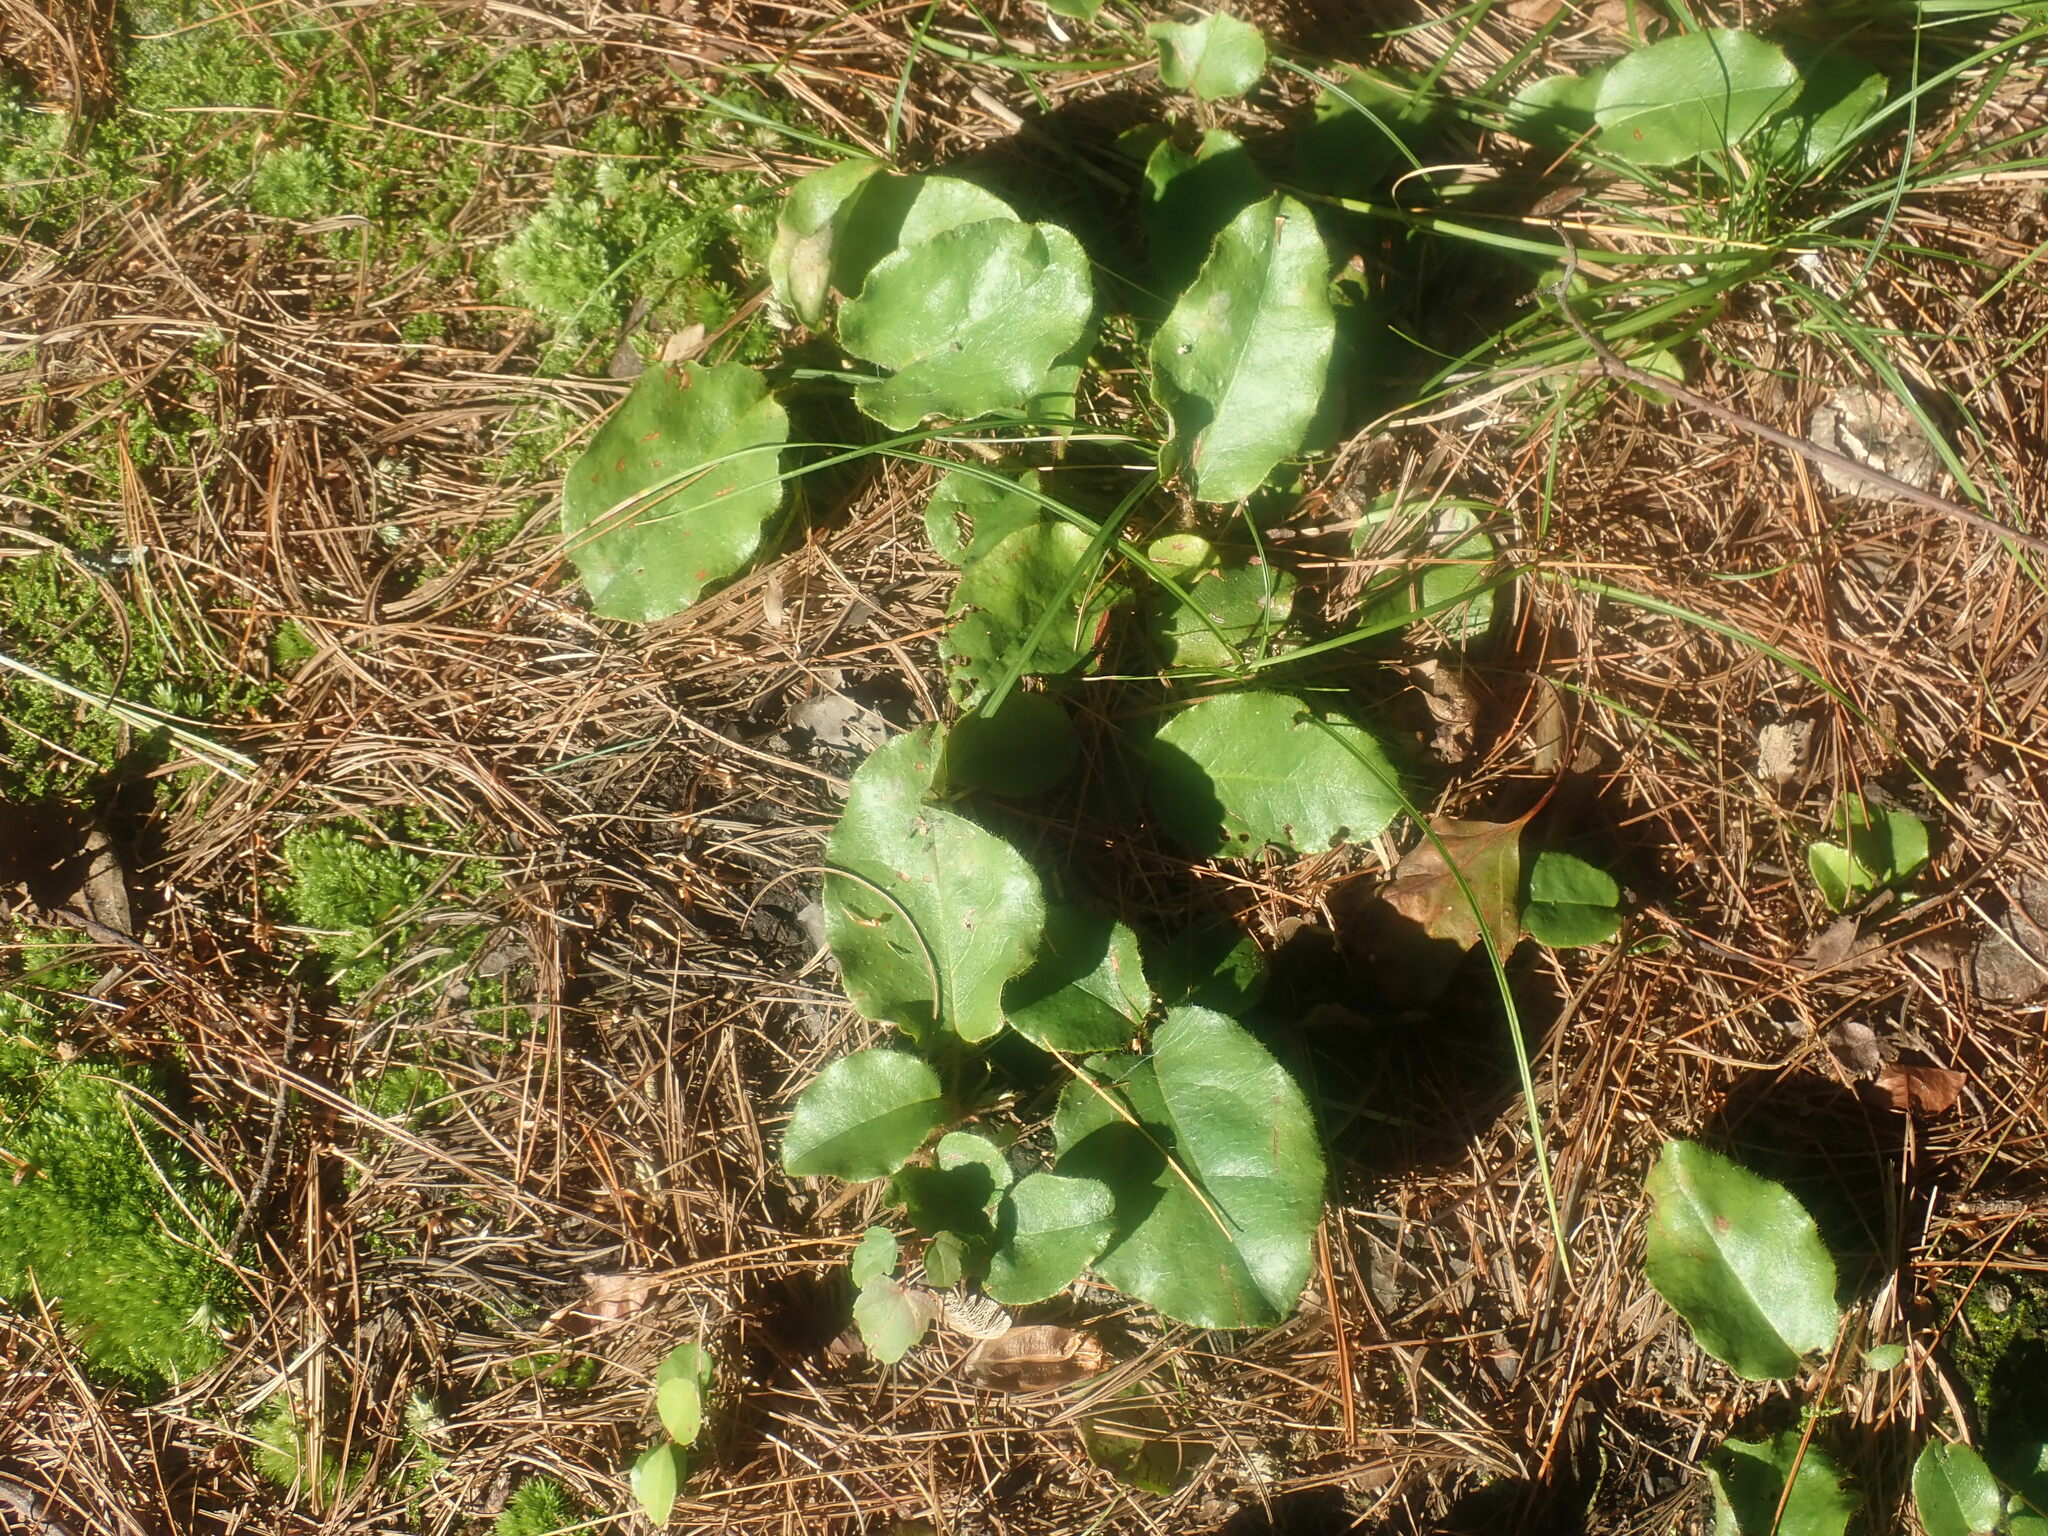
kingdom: Plantae
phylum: Tracheophyta
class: Magnoliopsida
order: Ericales
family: Ericaceae
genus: Epigaea
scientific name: Epigaea repens
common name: Gravelroot
